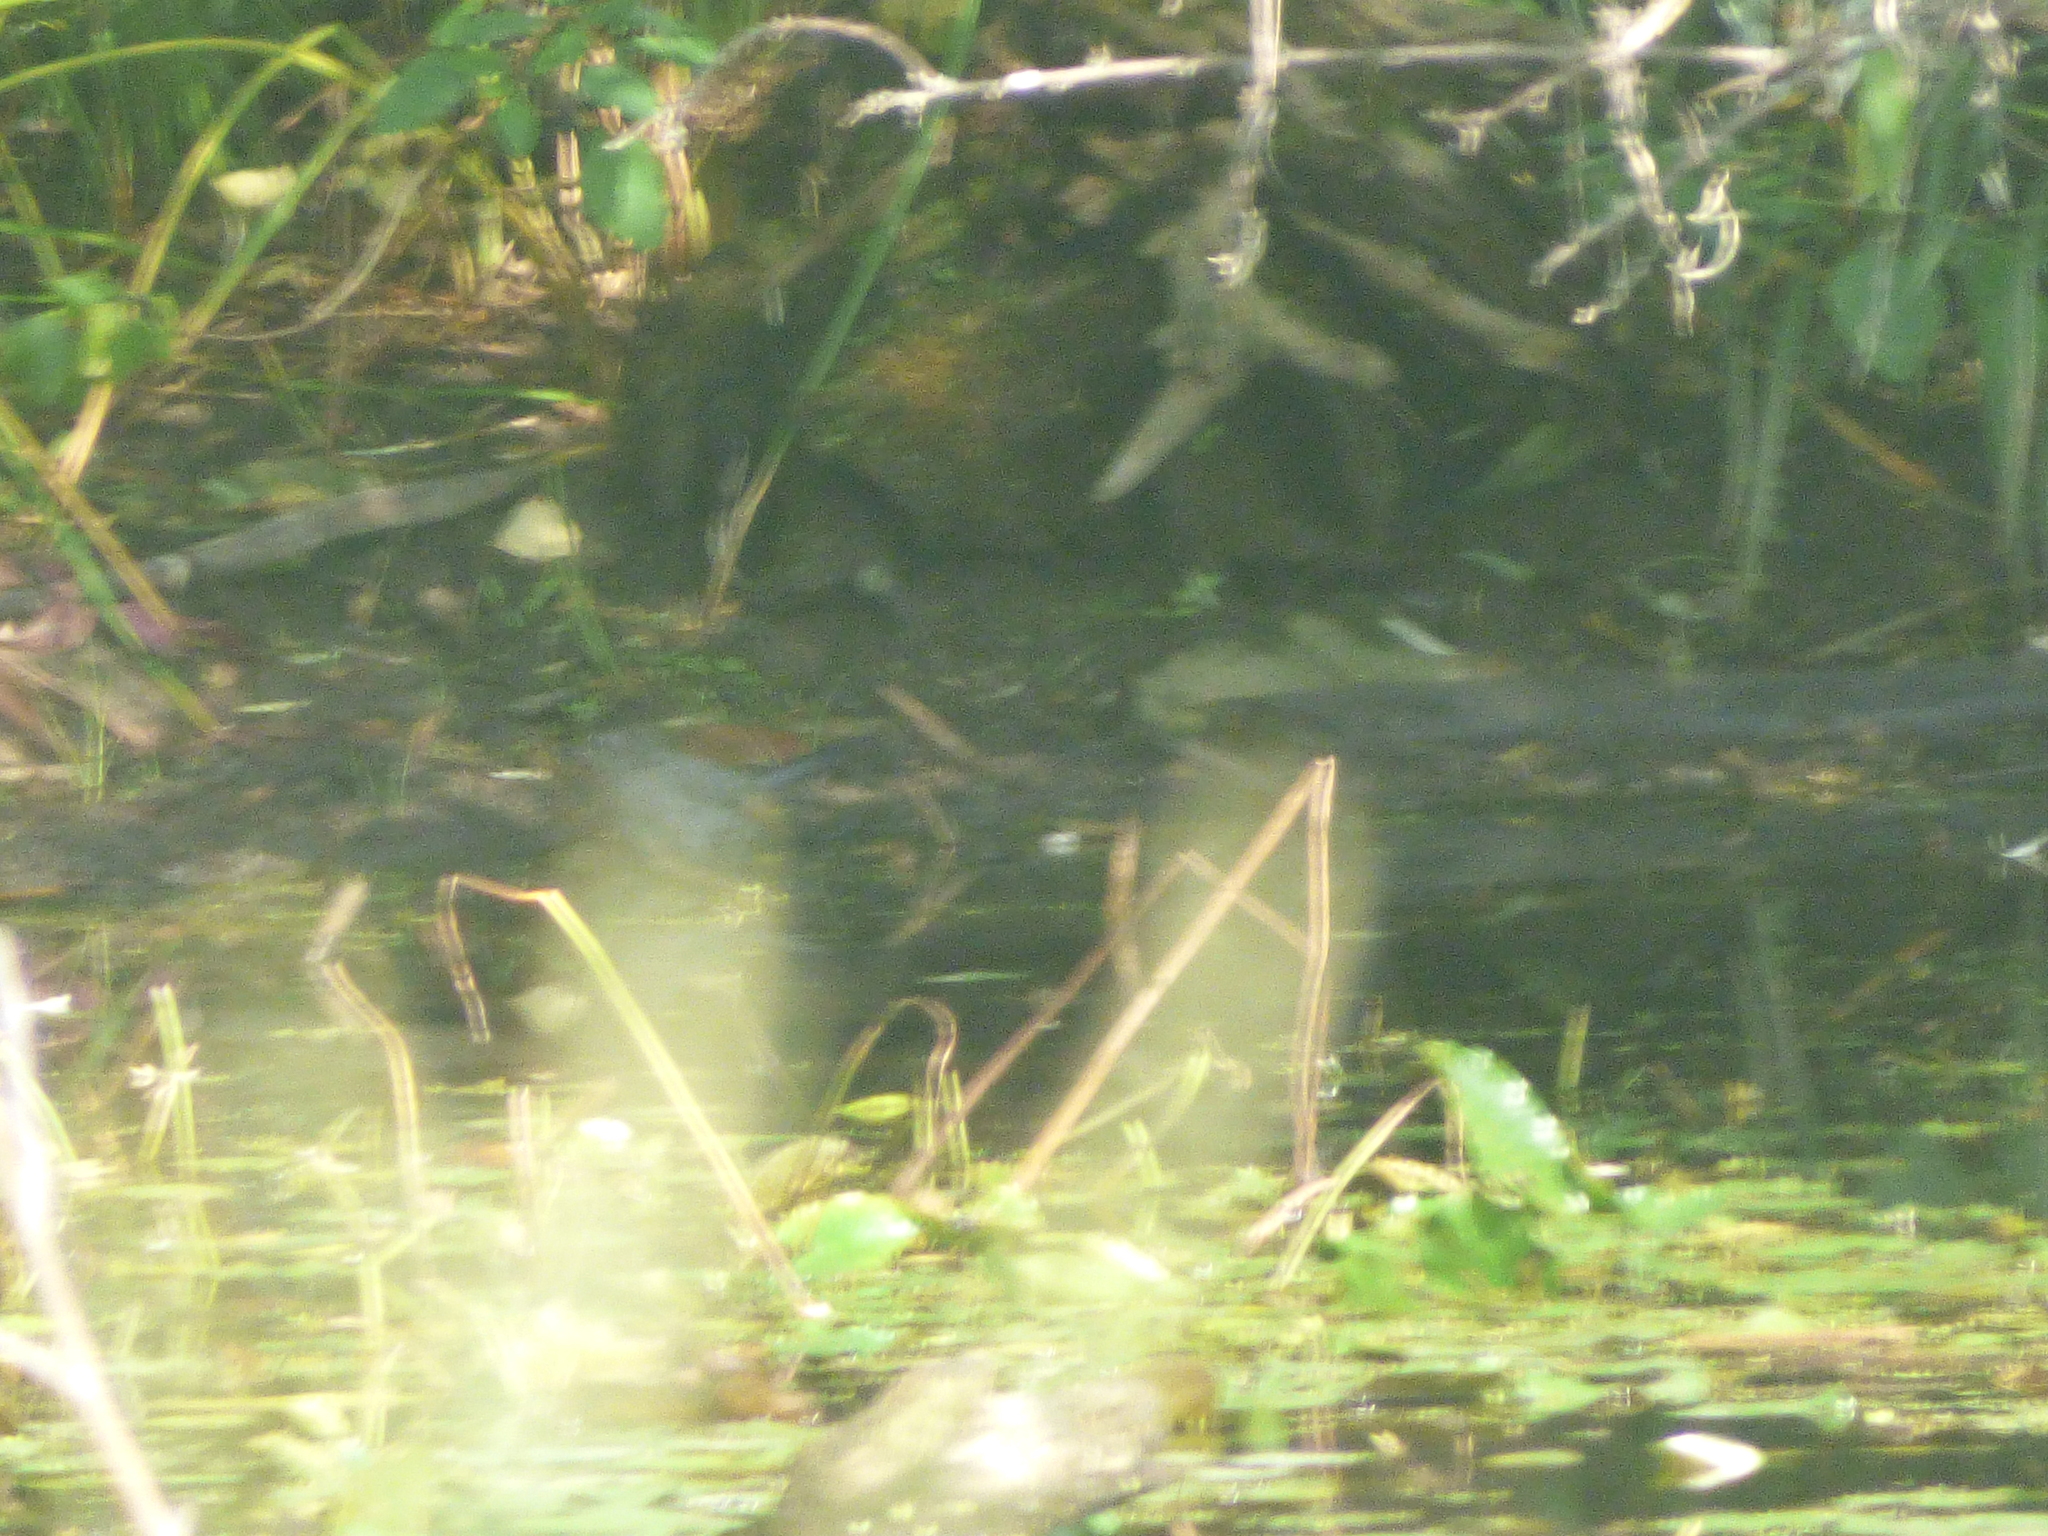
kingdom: Animalia
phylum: Chordata
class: Aves
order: Passeriformes
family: Mimidae
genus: Dumetella
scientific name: Dumetella carolinensis
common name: Gray catbird
